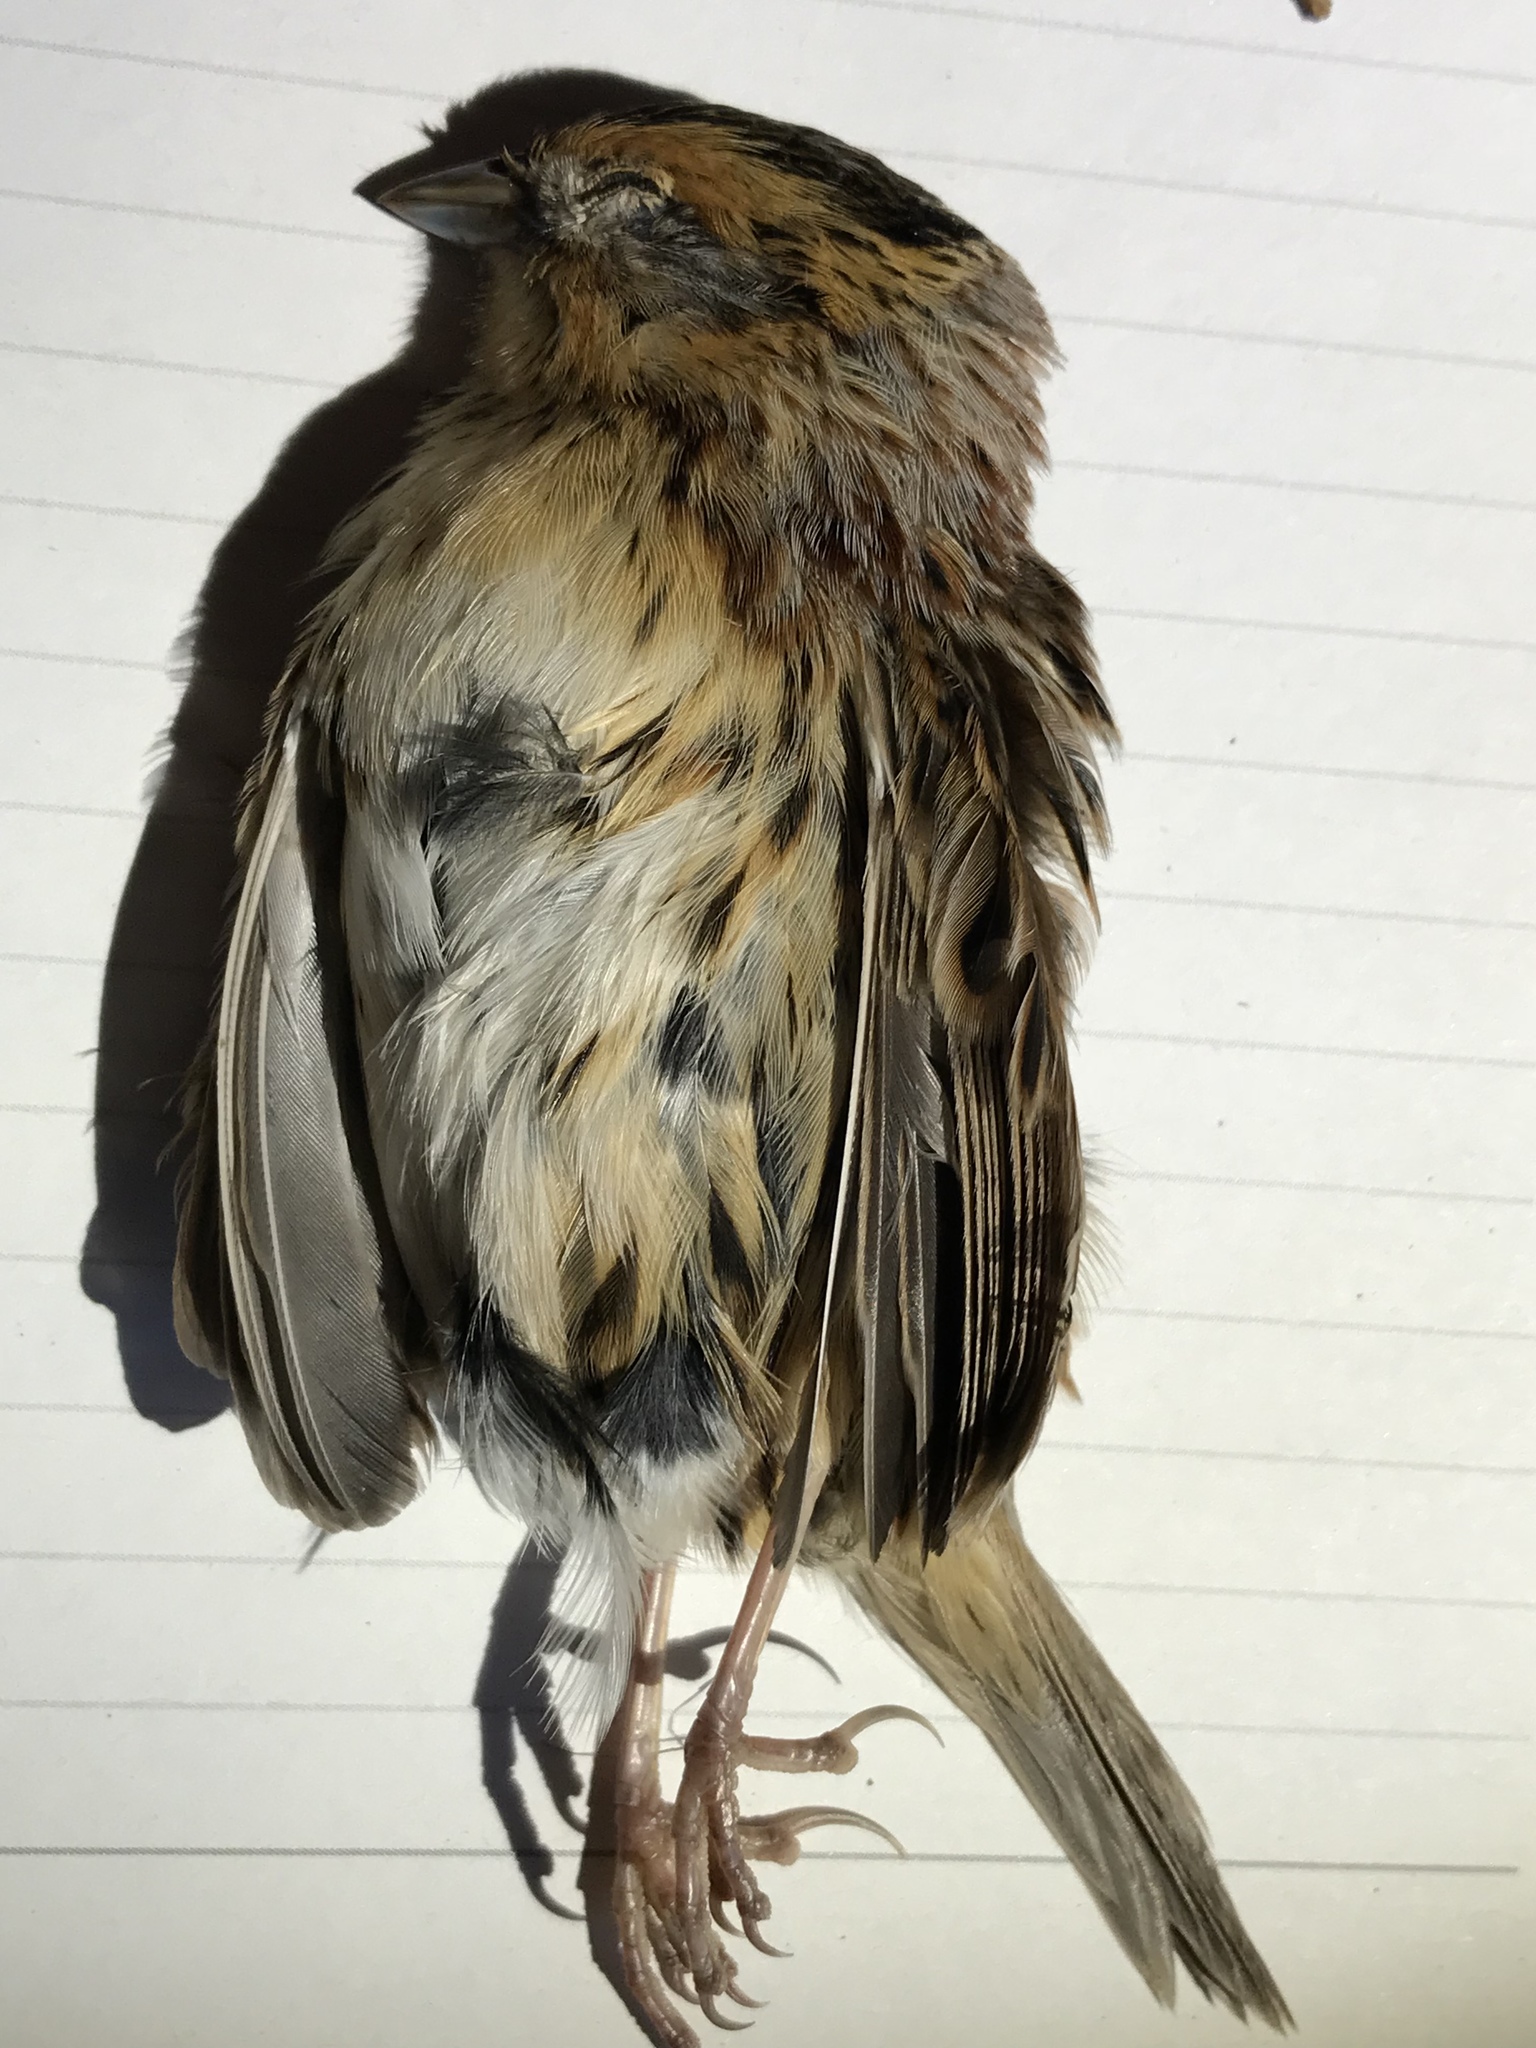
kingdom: Animalia
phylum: Chordata
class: Aves
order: Passeriformes
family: Passerellidae
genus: Ammospiza
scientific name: Ammospiza leconteii
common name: Le conte's sparrow
